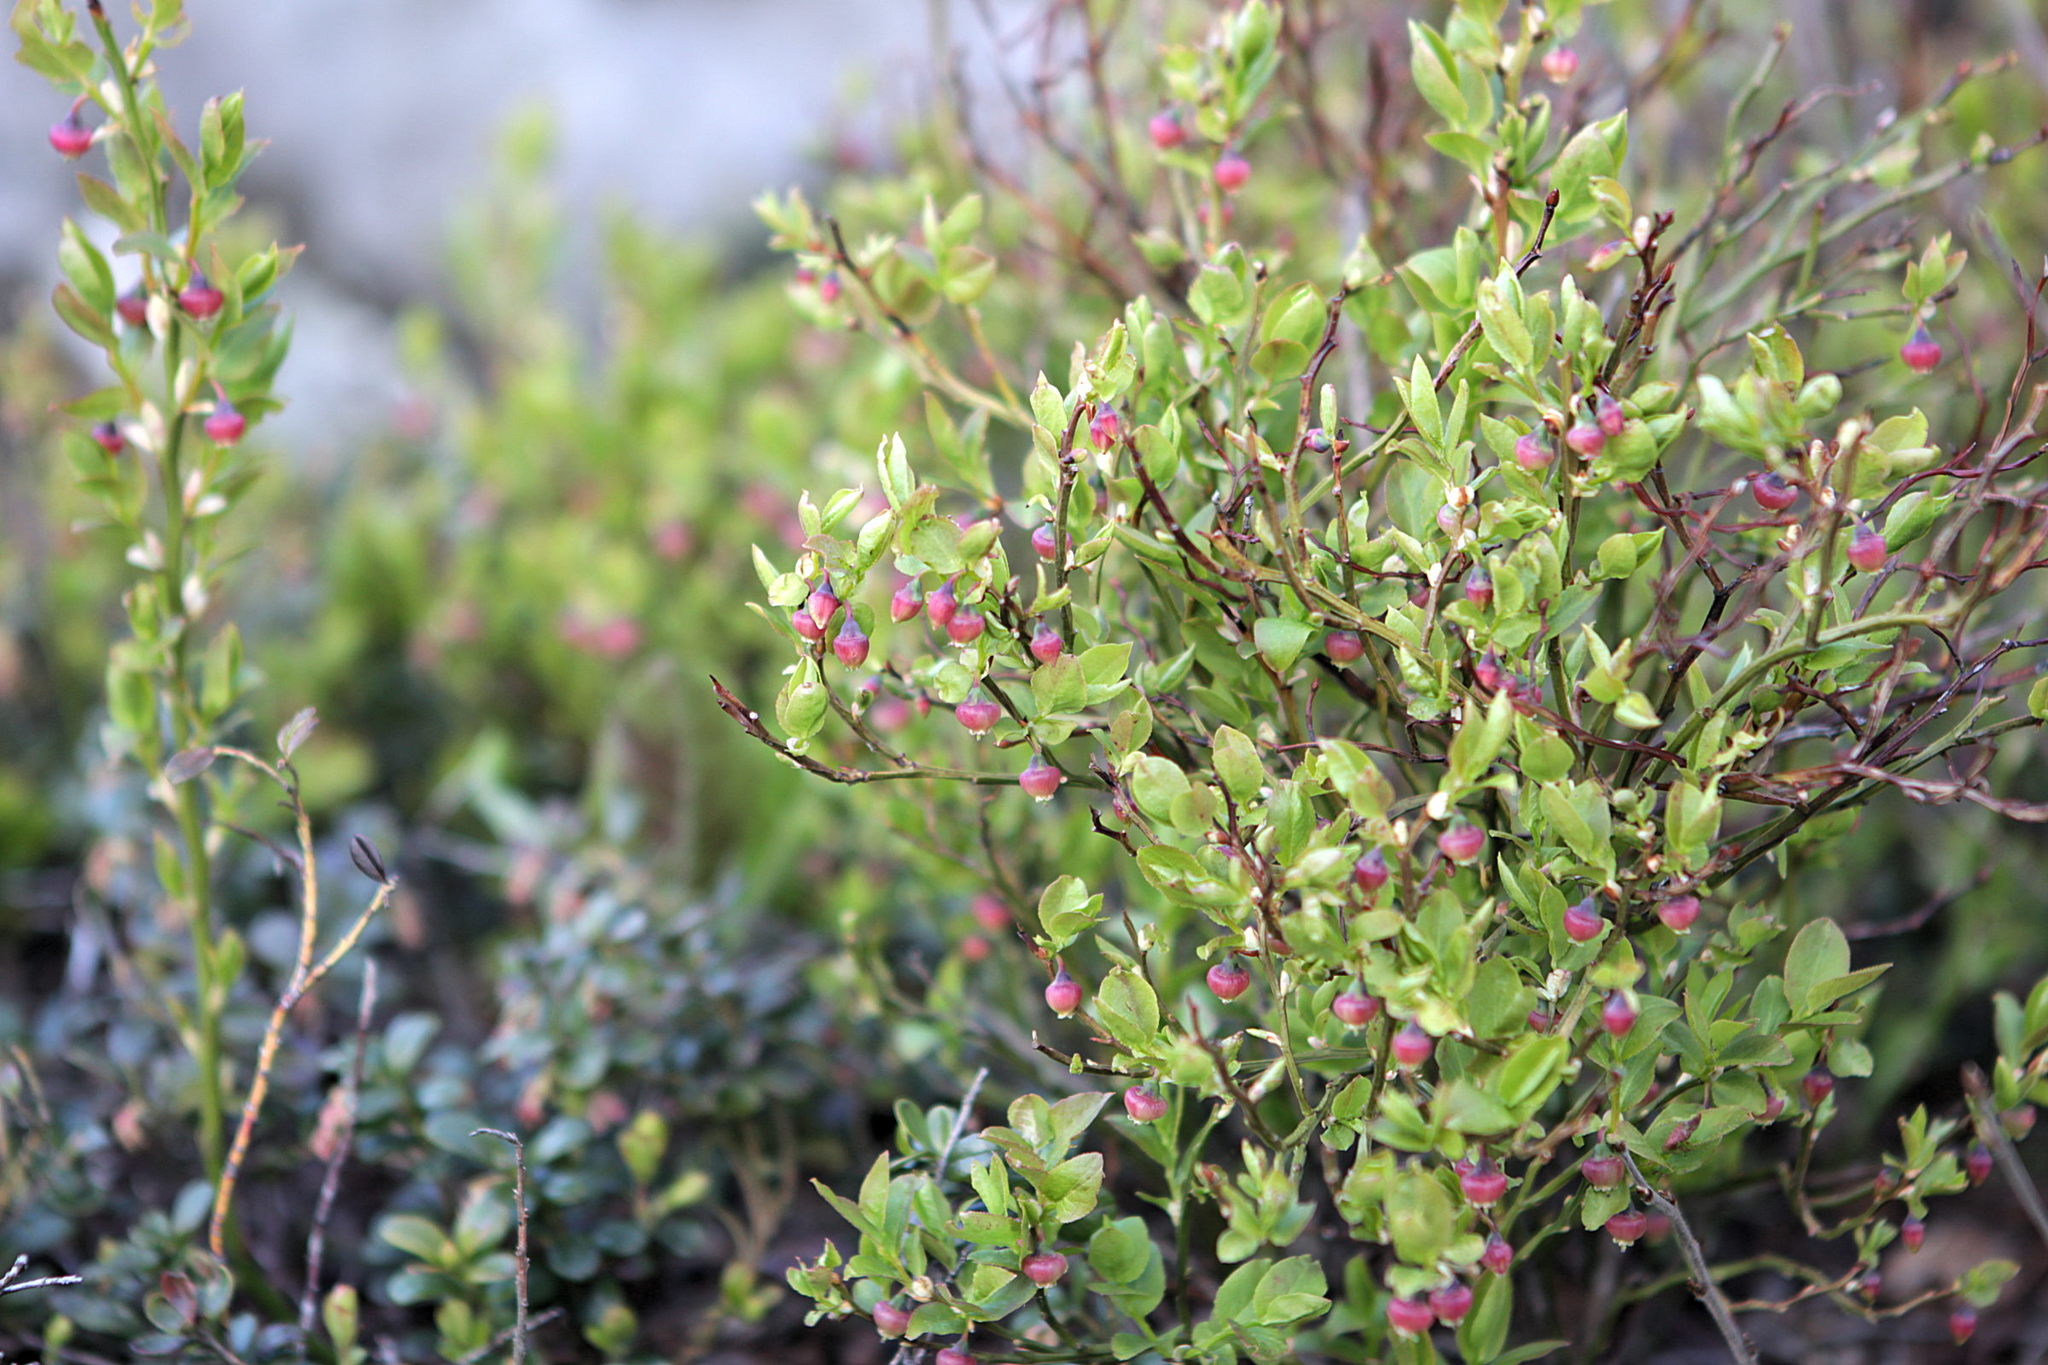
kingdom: Plantae
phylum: Tracheophyta
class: Magnoliopsida
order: Ericales
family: Ericaceae
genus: Vaccinium
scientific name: Vaccinium myrtillus
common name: Bilberry
